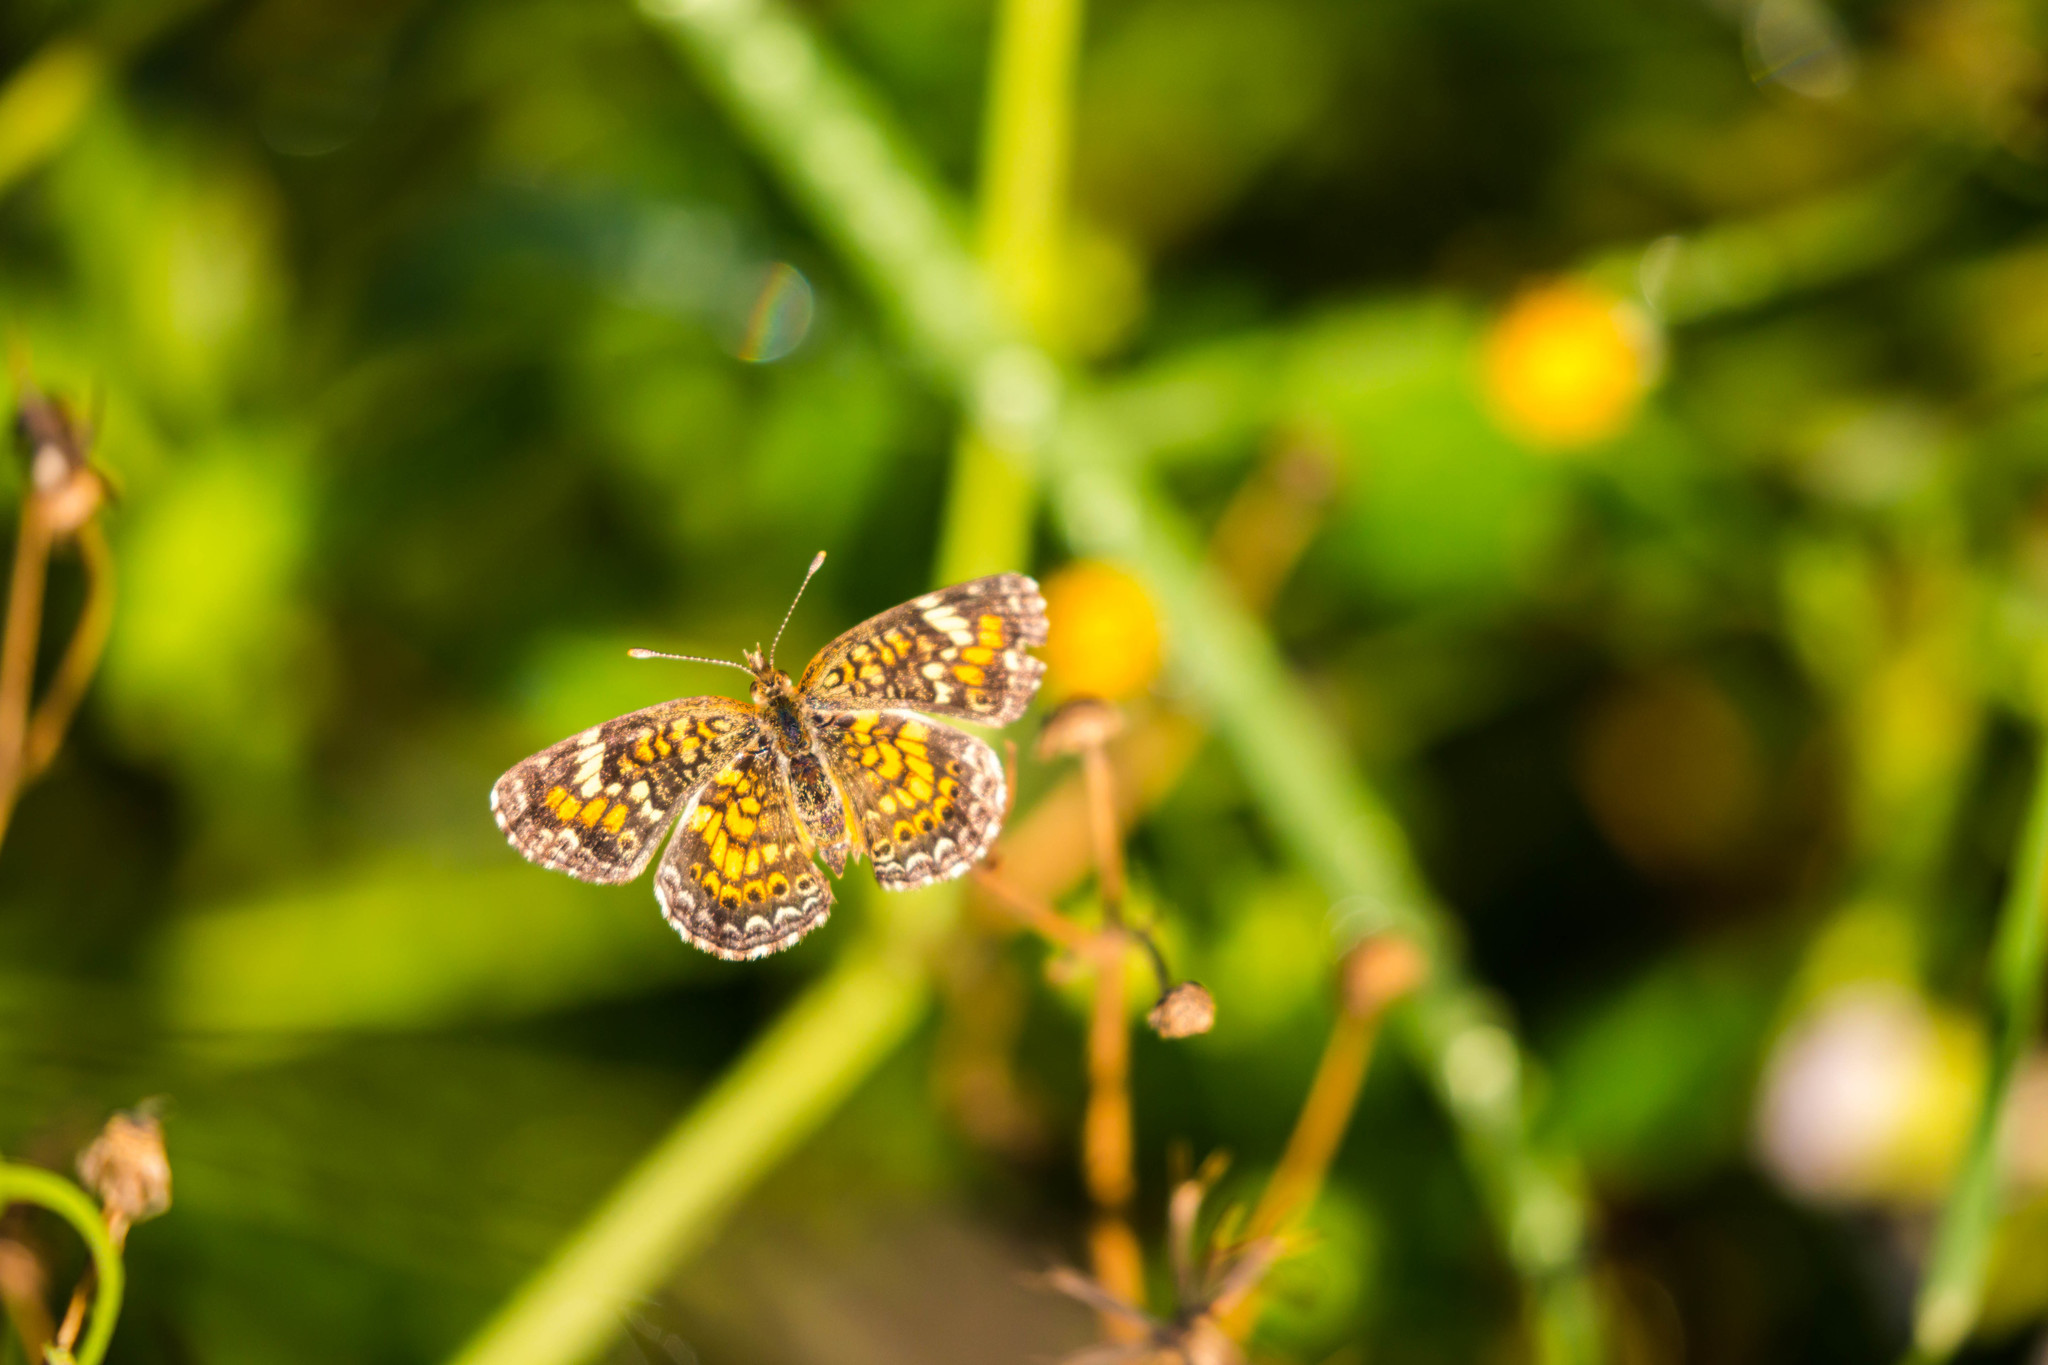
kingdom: Animalia
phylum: Arthropoda
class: Insecta
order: Lepidoptera
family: Nymphalidae
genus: Phyciodes
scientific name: Phyciodes phaon
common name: Phaon crescent
